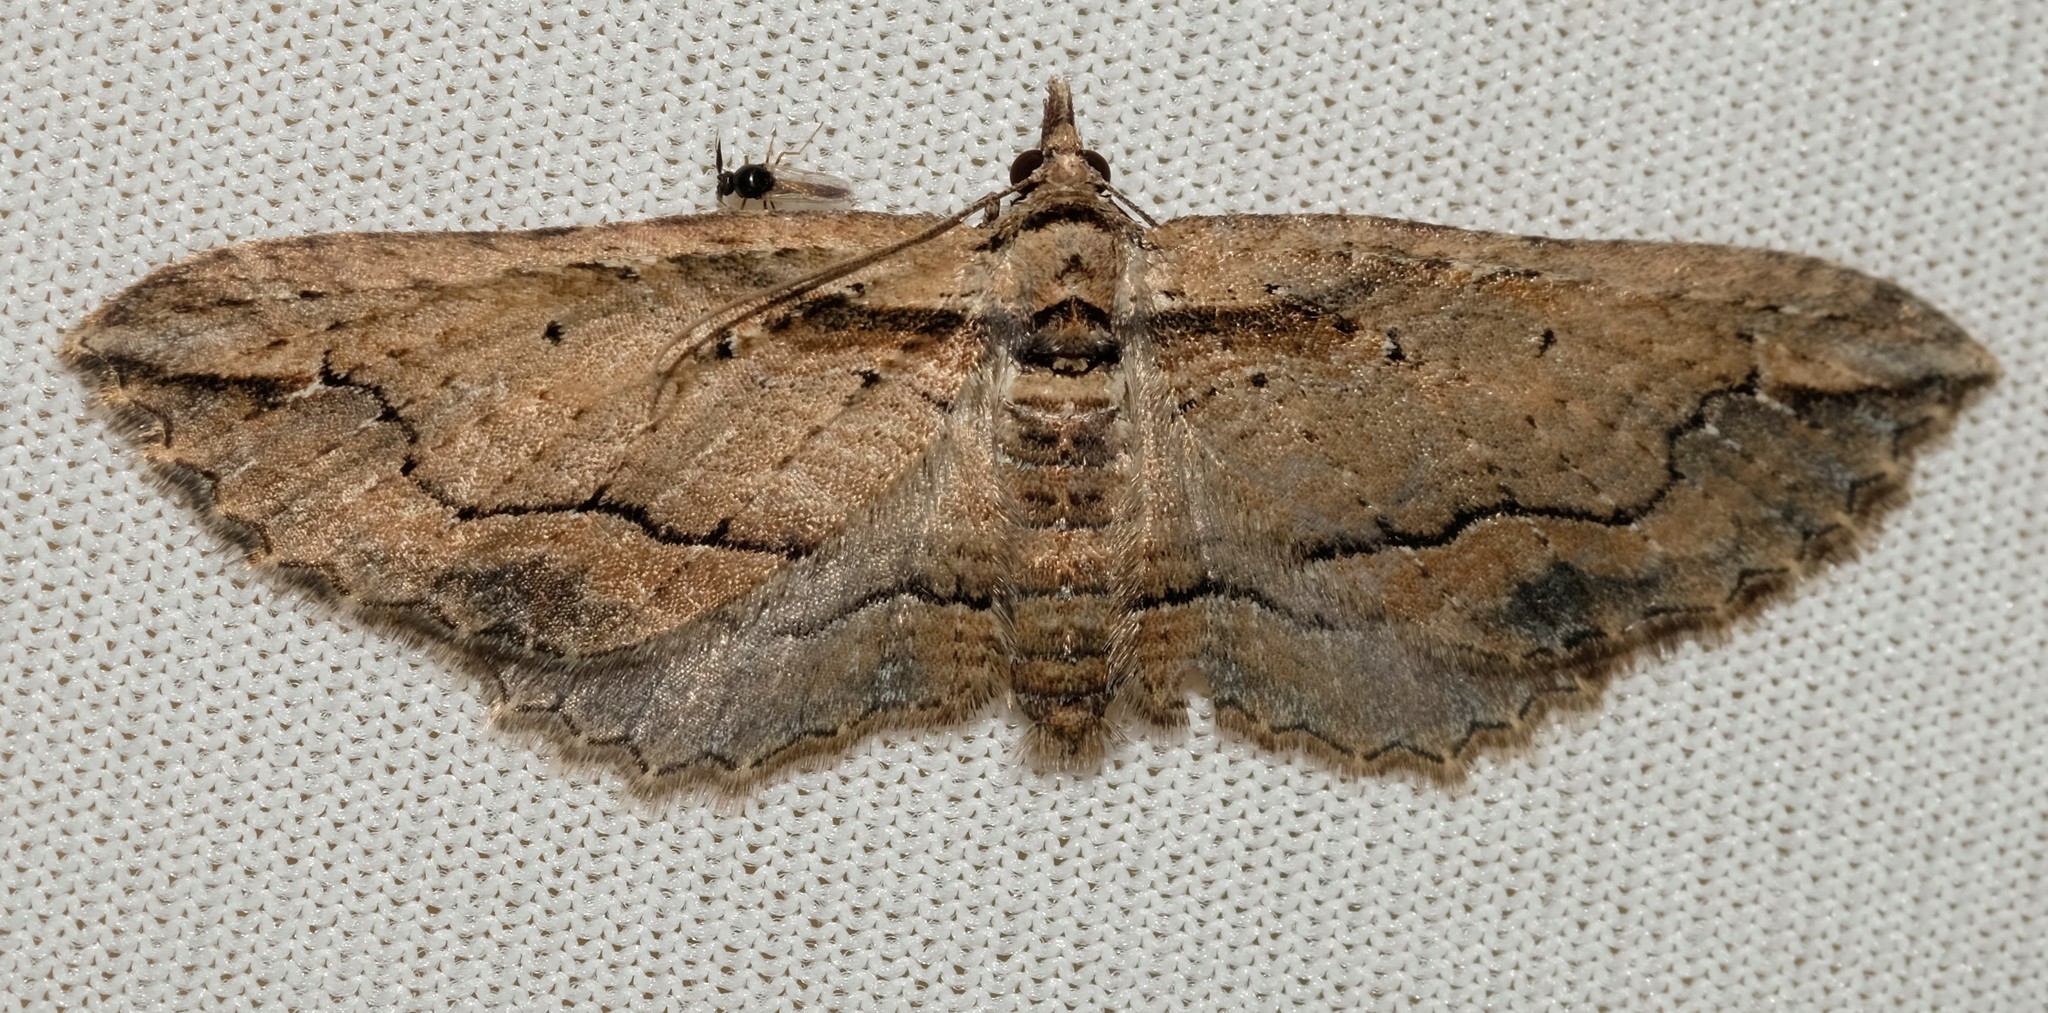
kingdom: Animalia
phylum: Arthropoda
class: Insecta
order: Lepidoptera
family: Geometridae
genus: Chrysolarentia
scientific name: Chrysolarentia leucophanes
